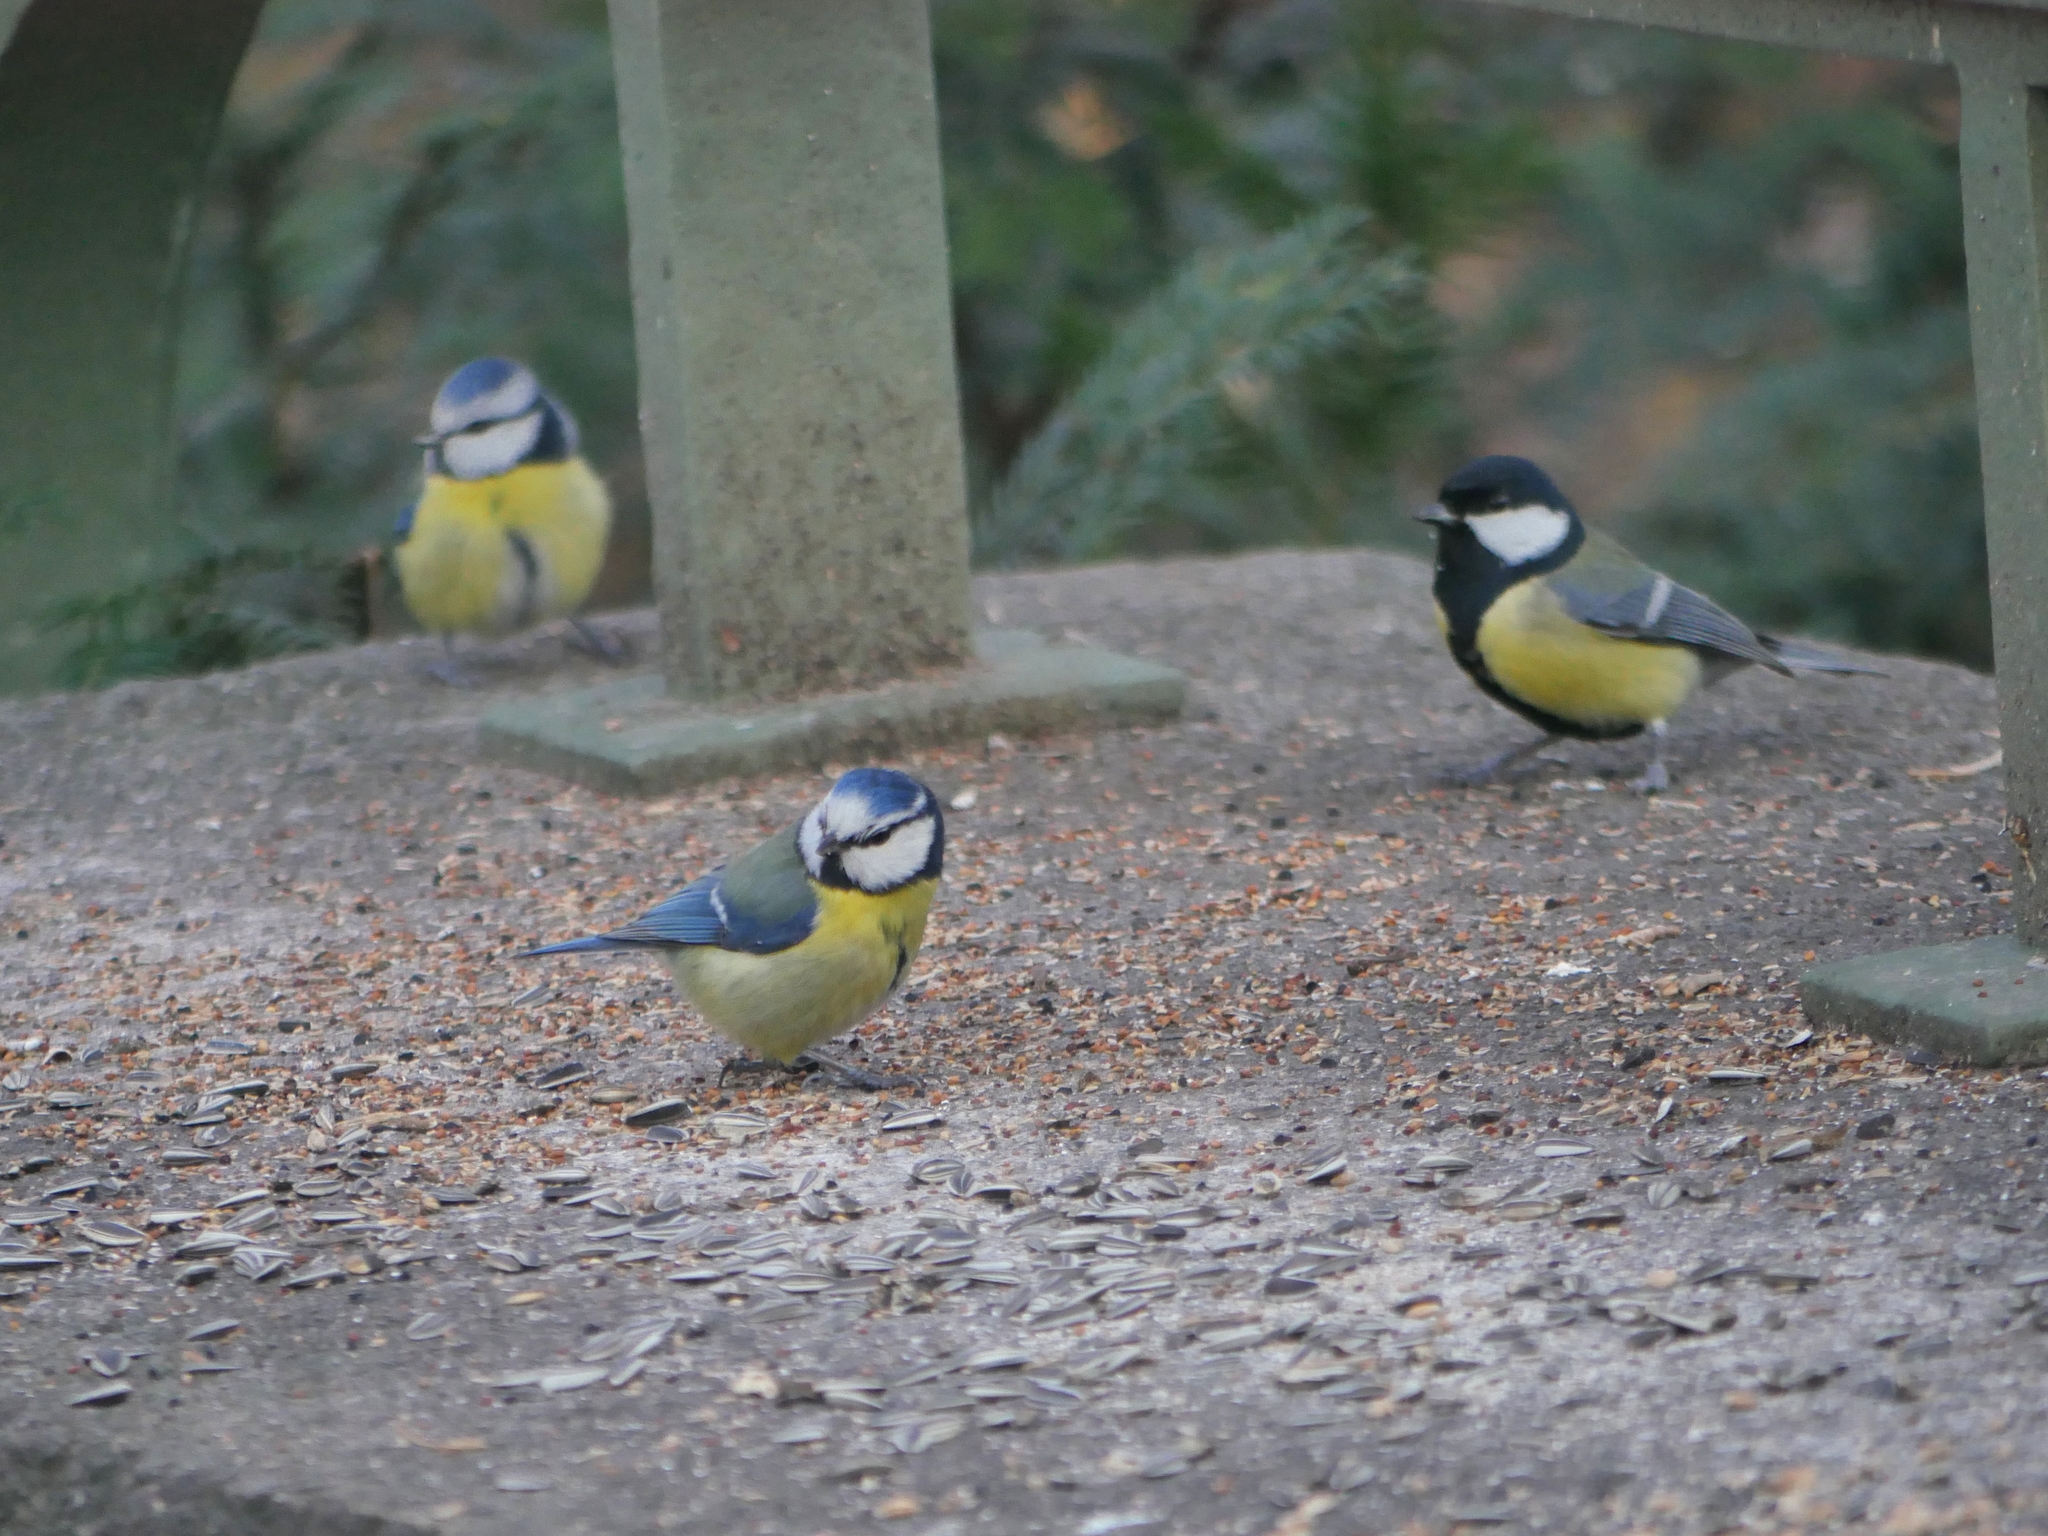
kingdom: Animalia
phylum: Chordata
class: Aves
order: Passeriformes
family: Paridae
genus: Cyanistes
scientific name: Cyanistes caeruleus
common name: Eurasian blue tit
